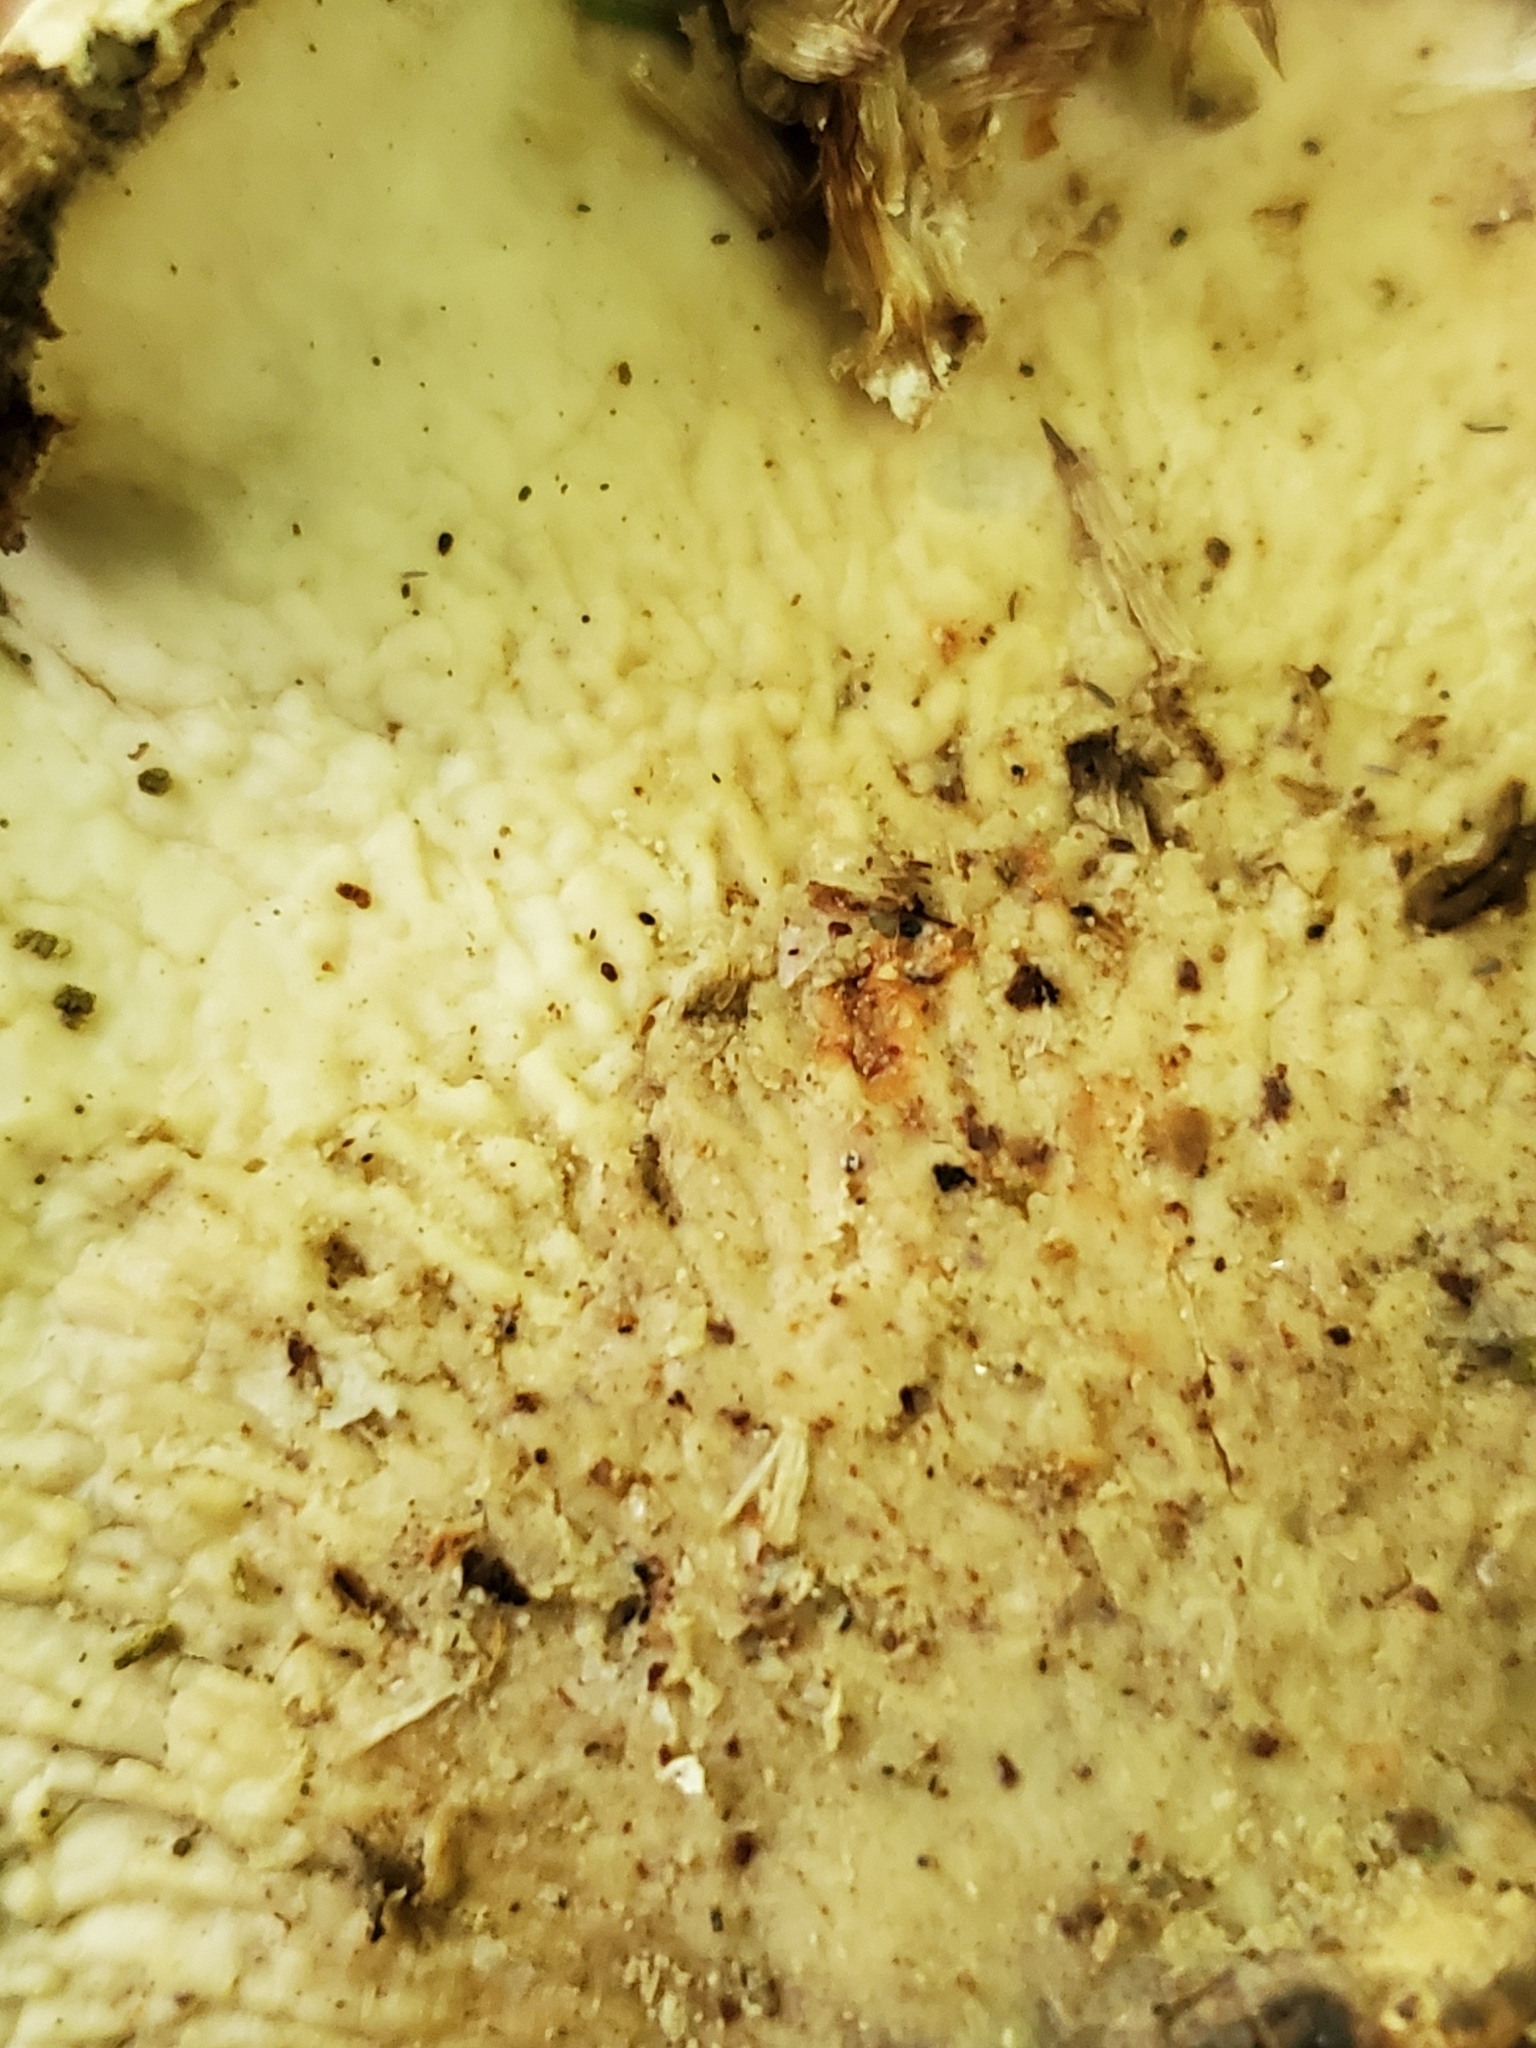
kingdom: Fungi
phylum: Basidiomycota
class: Agaricomycetes
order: Polyporales
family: Fomitopsidaceae
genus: Fomitopsis
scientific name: Fomitopsis betulina
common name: Birch polypore
